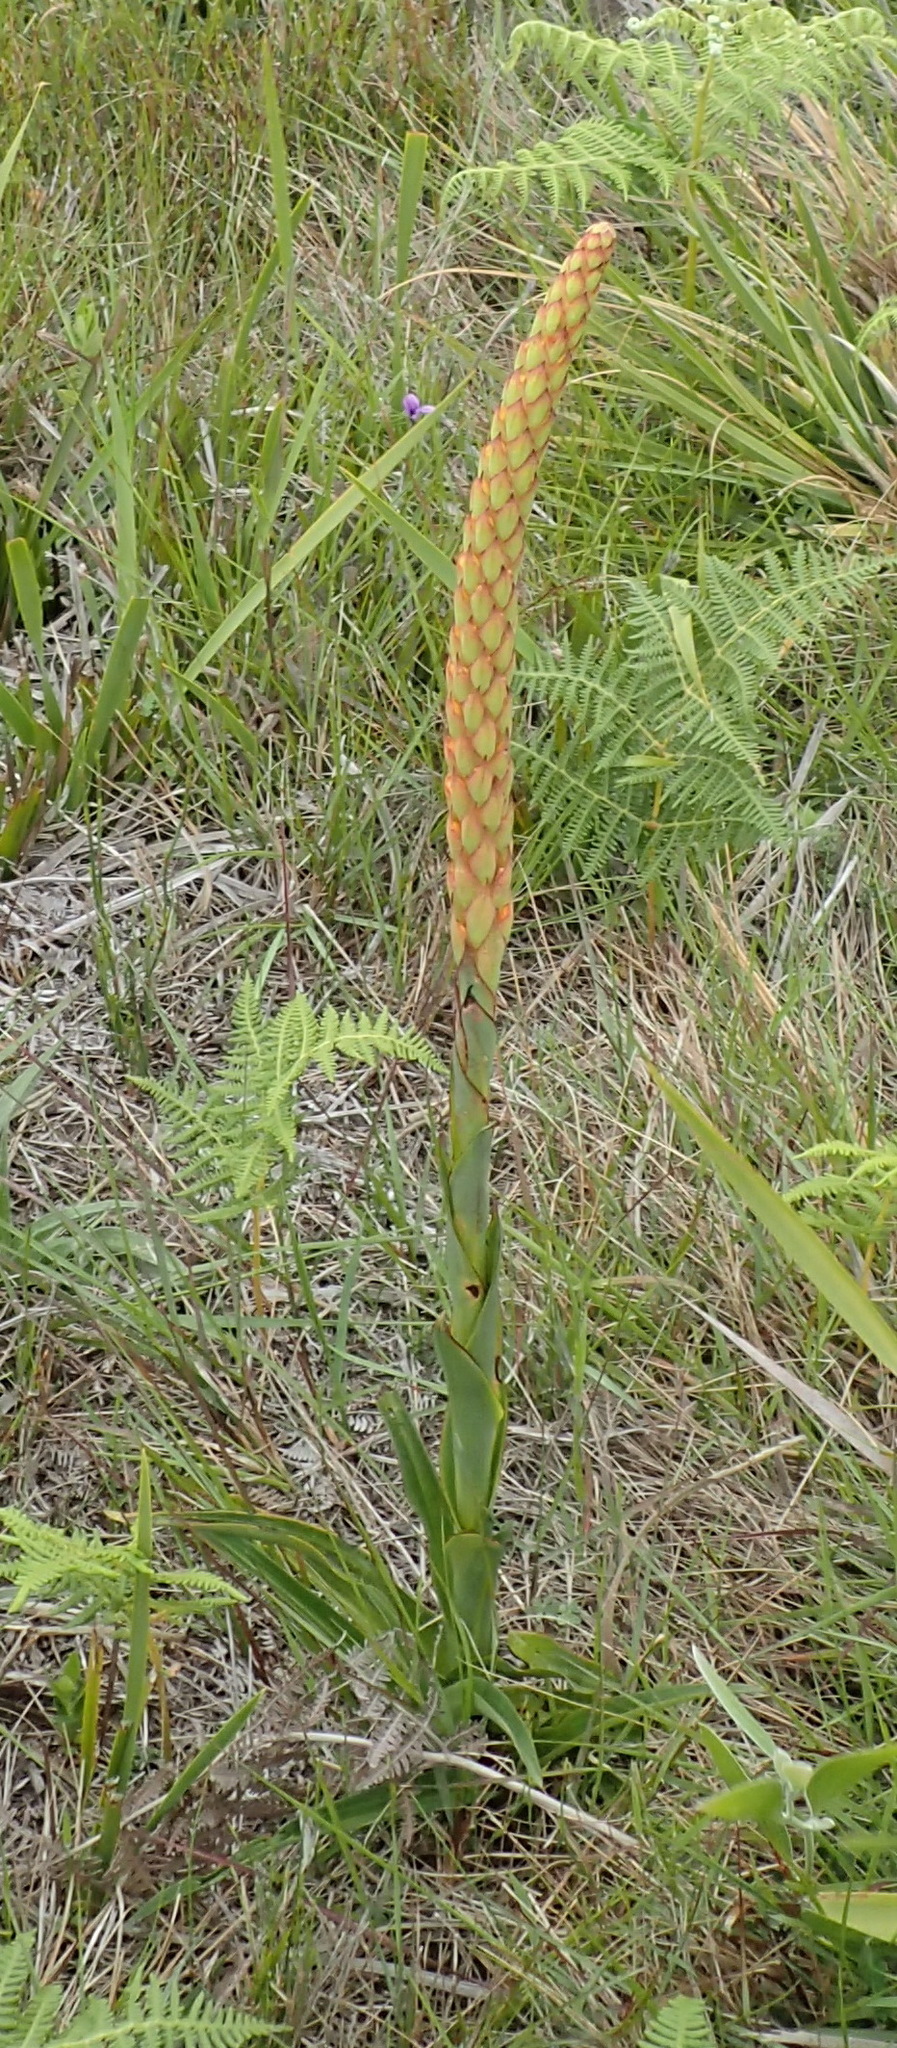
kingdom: Plantae
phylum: Tracheophyta
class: Liliopsida
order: Asparagales
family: Orchidaceae
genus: Disa
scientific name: Disa chrysostachya
